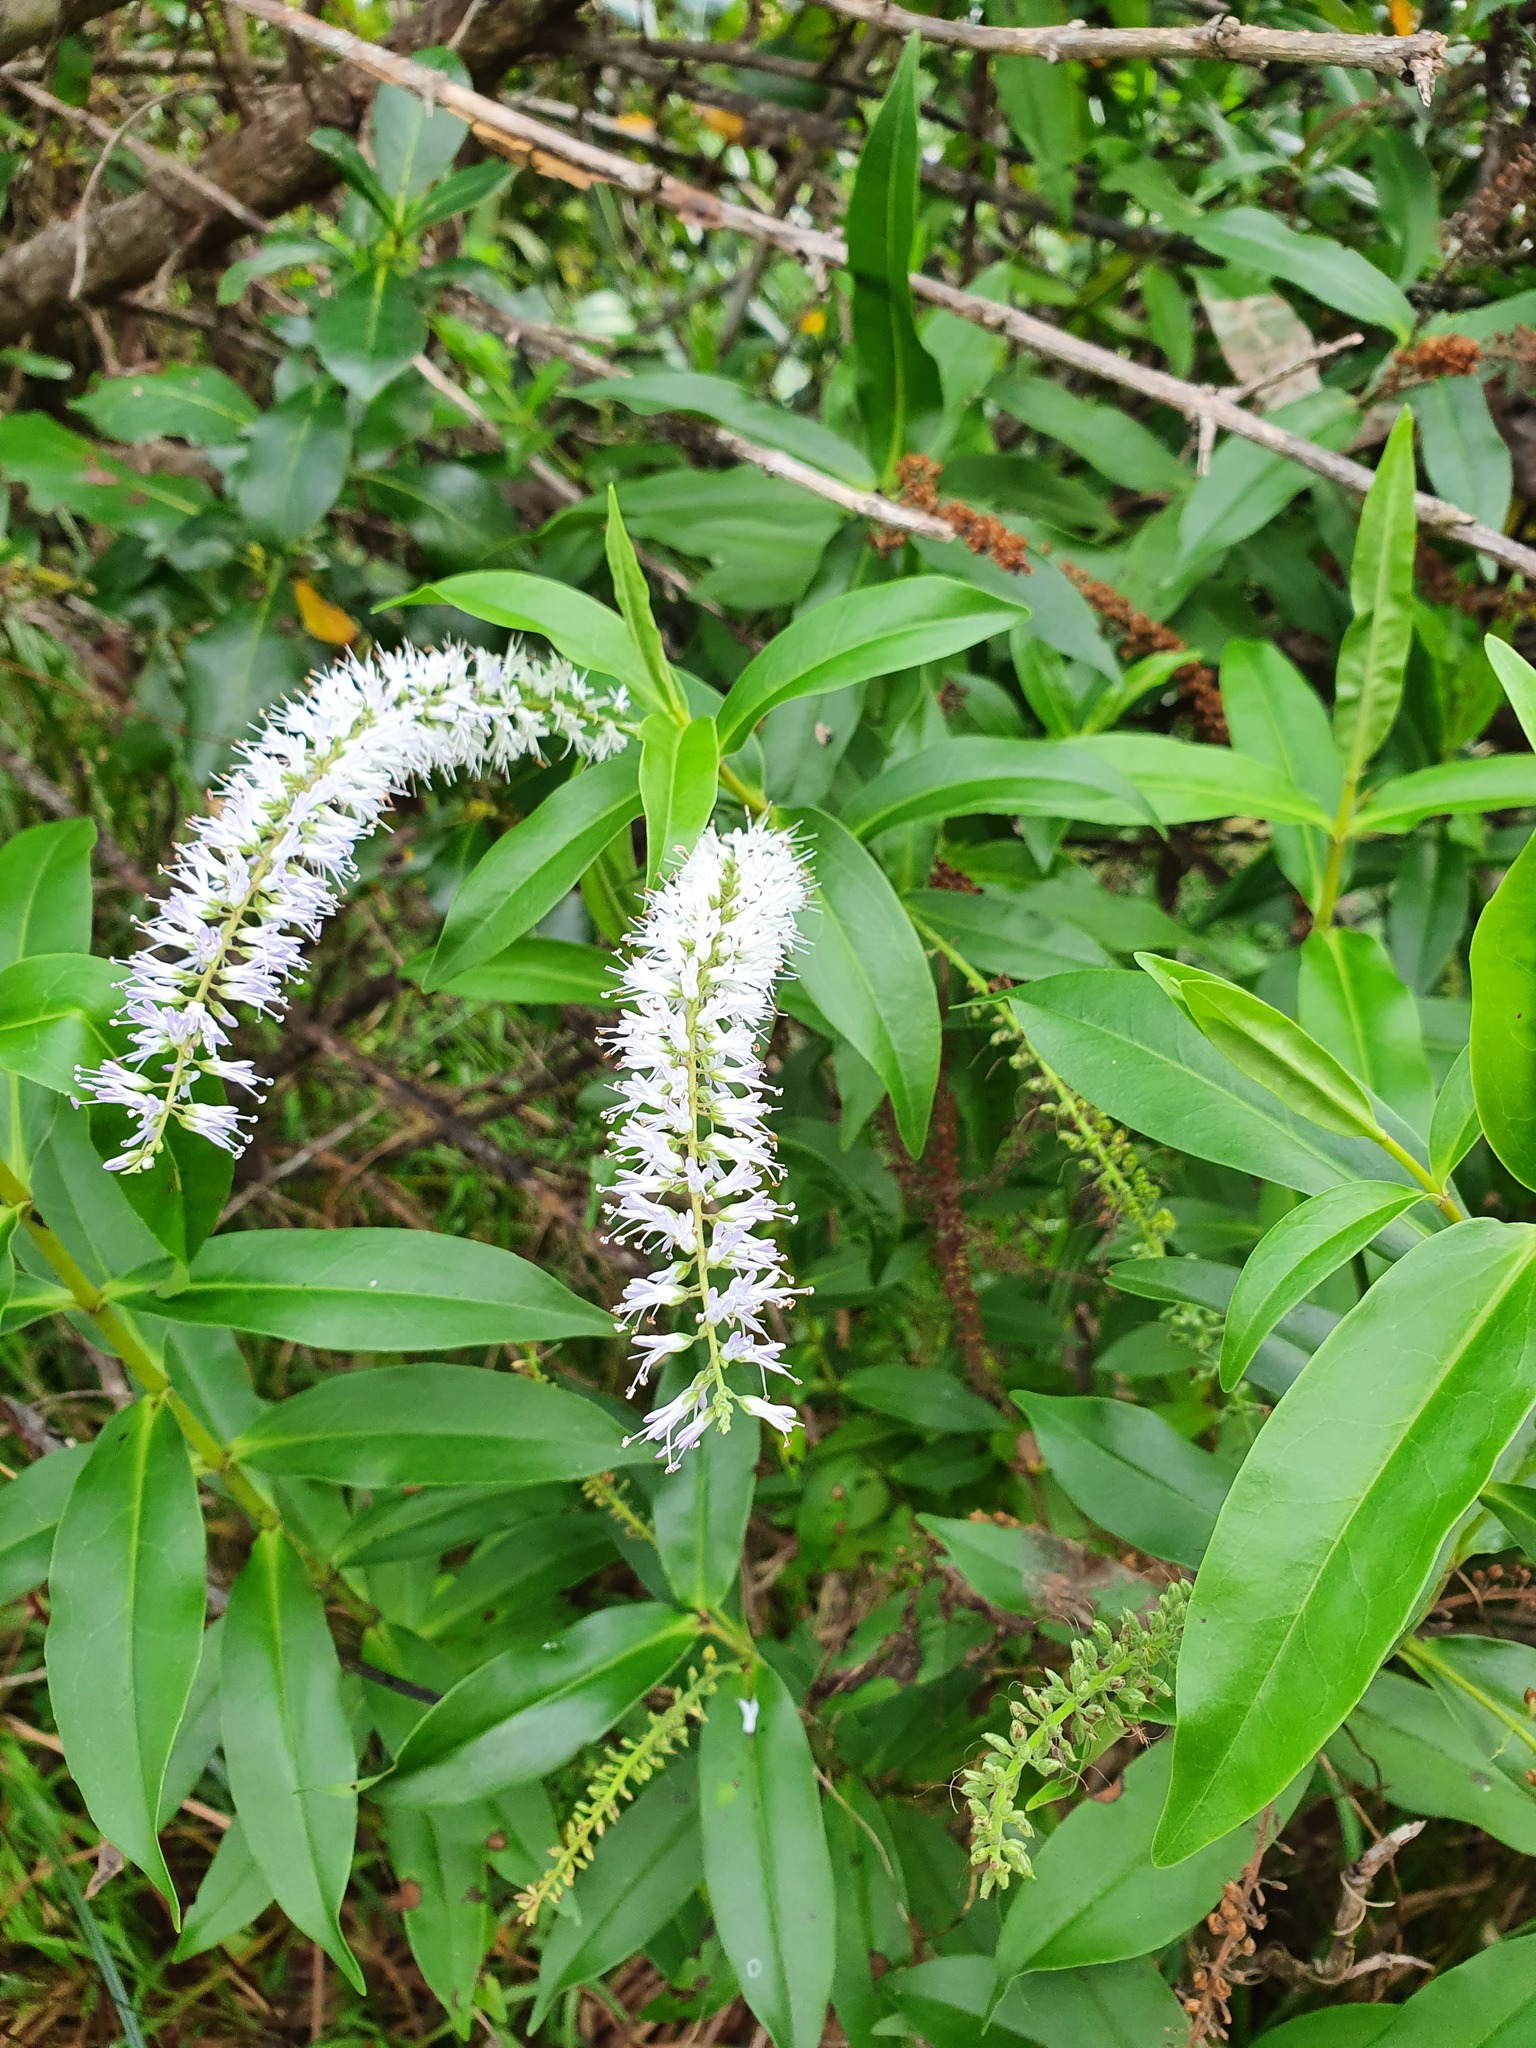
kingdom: Plantae
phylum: Tracheophyta
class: Magnoliopsida
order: Lamiales
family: Plantaginaceae
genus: Veronica
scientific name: Veronica stricta
